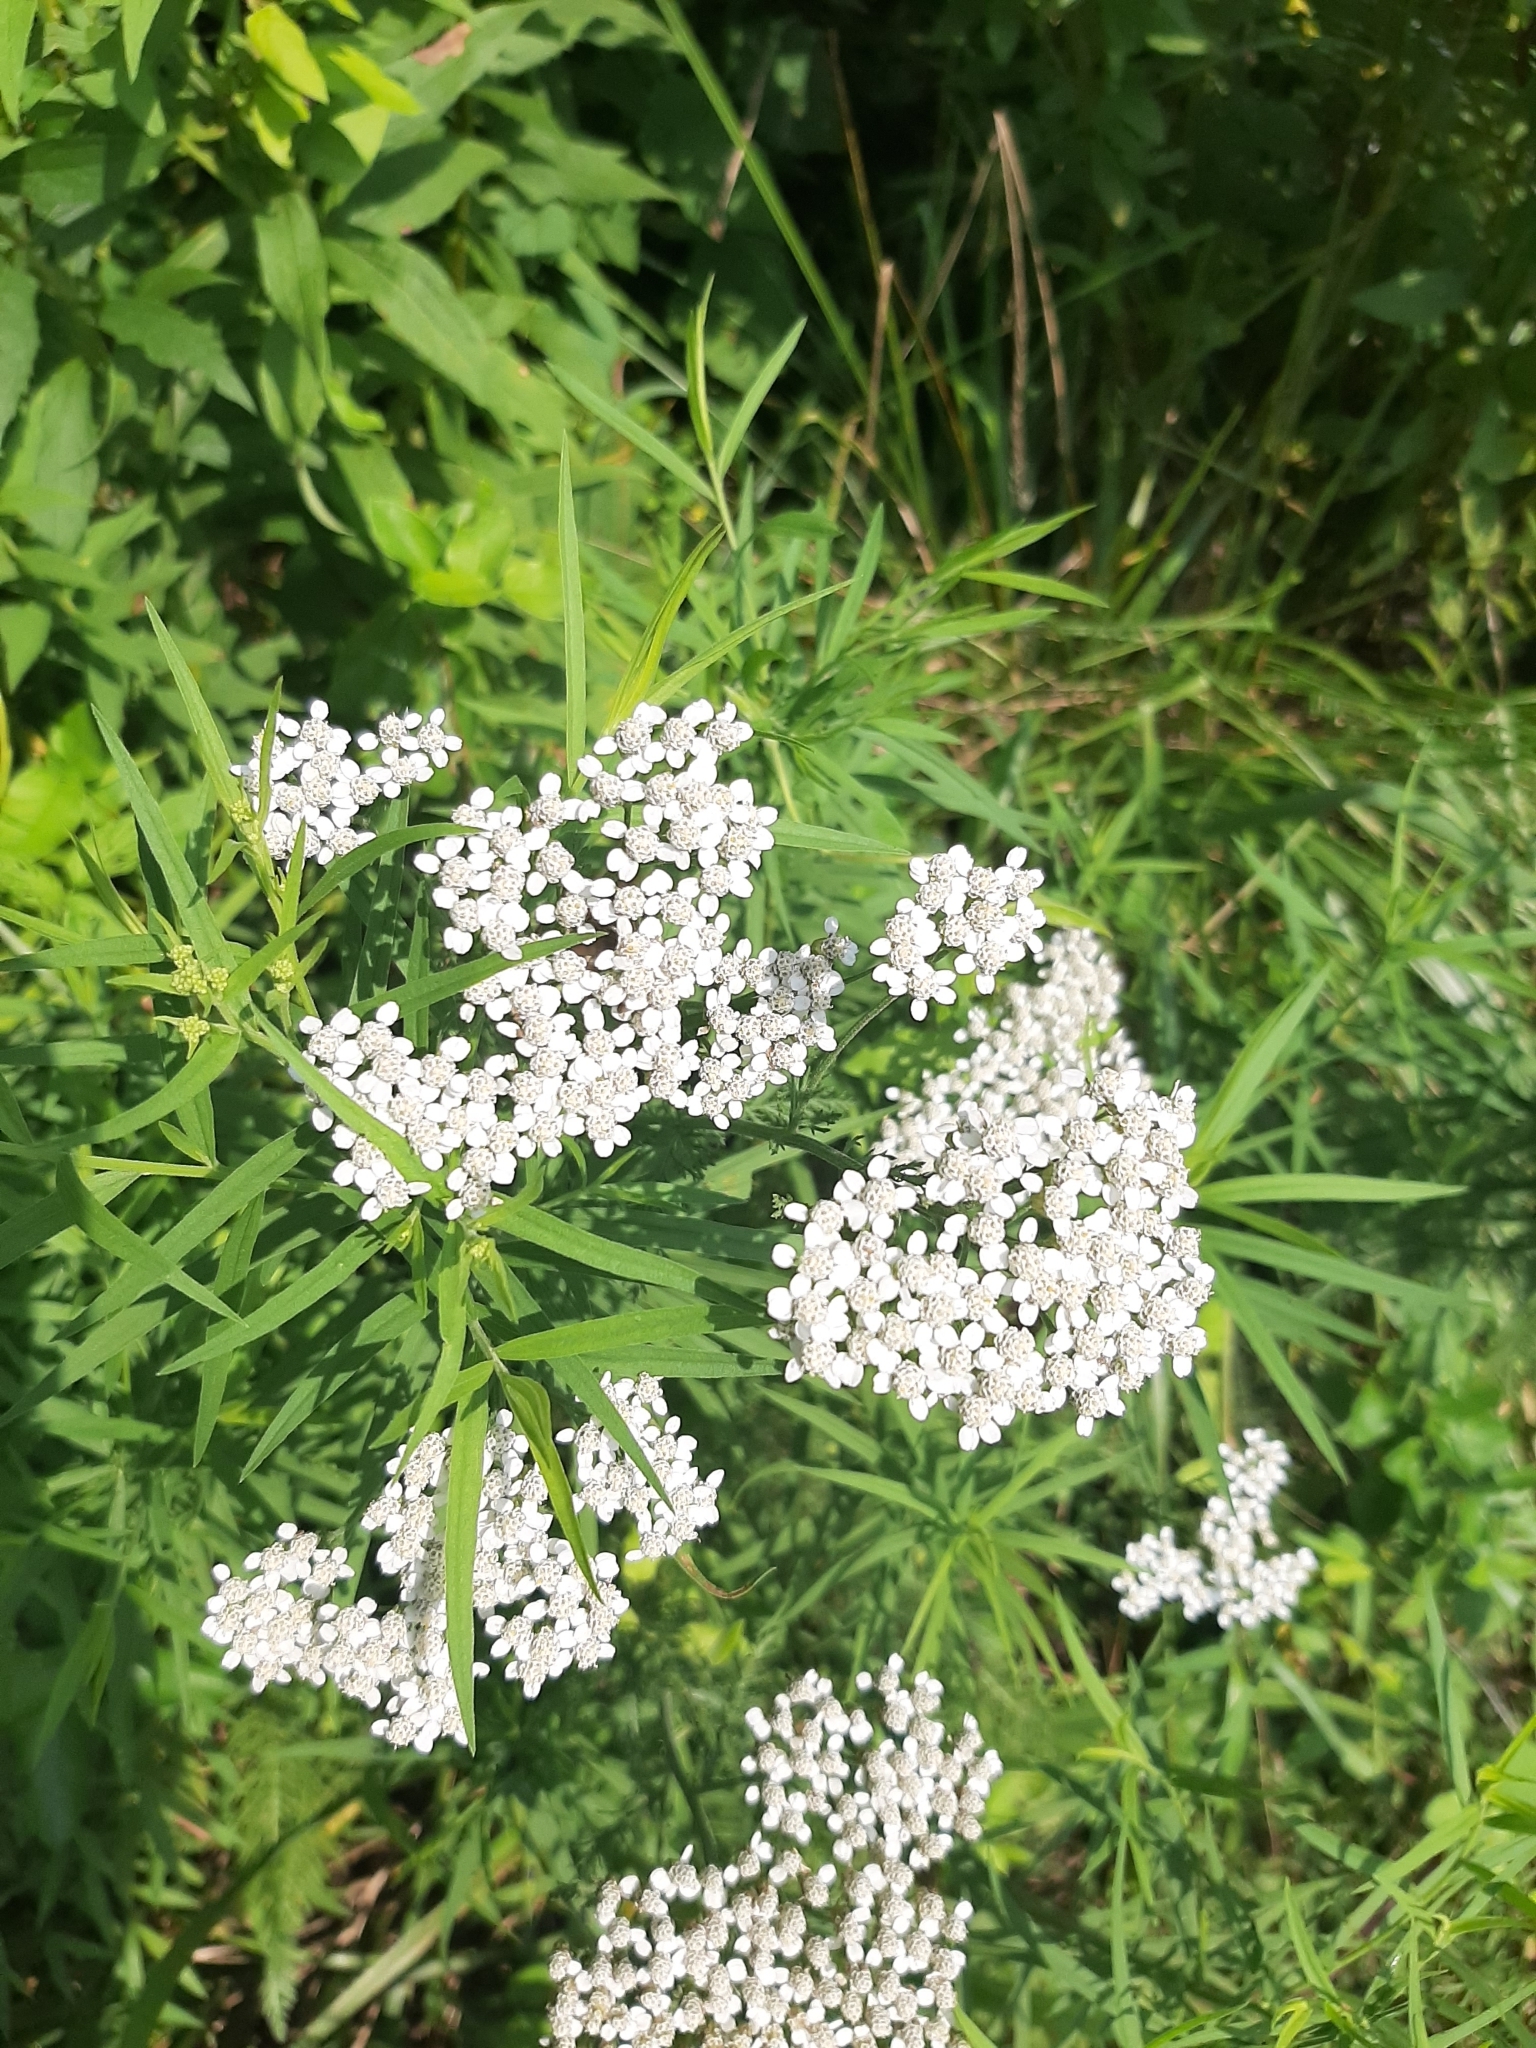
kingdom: Plantae
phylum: Tracheophyta
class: Magnoliopsida
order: Asterales
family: Asteraceae
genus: Achillea
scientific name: Achillea millefolium
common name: Yarrow
